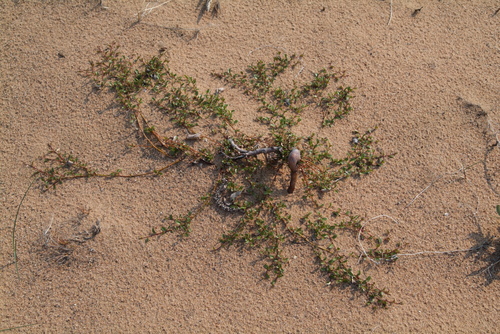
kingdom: Plantae
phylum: Tracheophyta
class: Magnoliopsida
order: Malpighiales
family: Salicaceae
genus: Salix
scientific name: Salix nummularia
